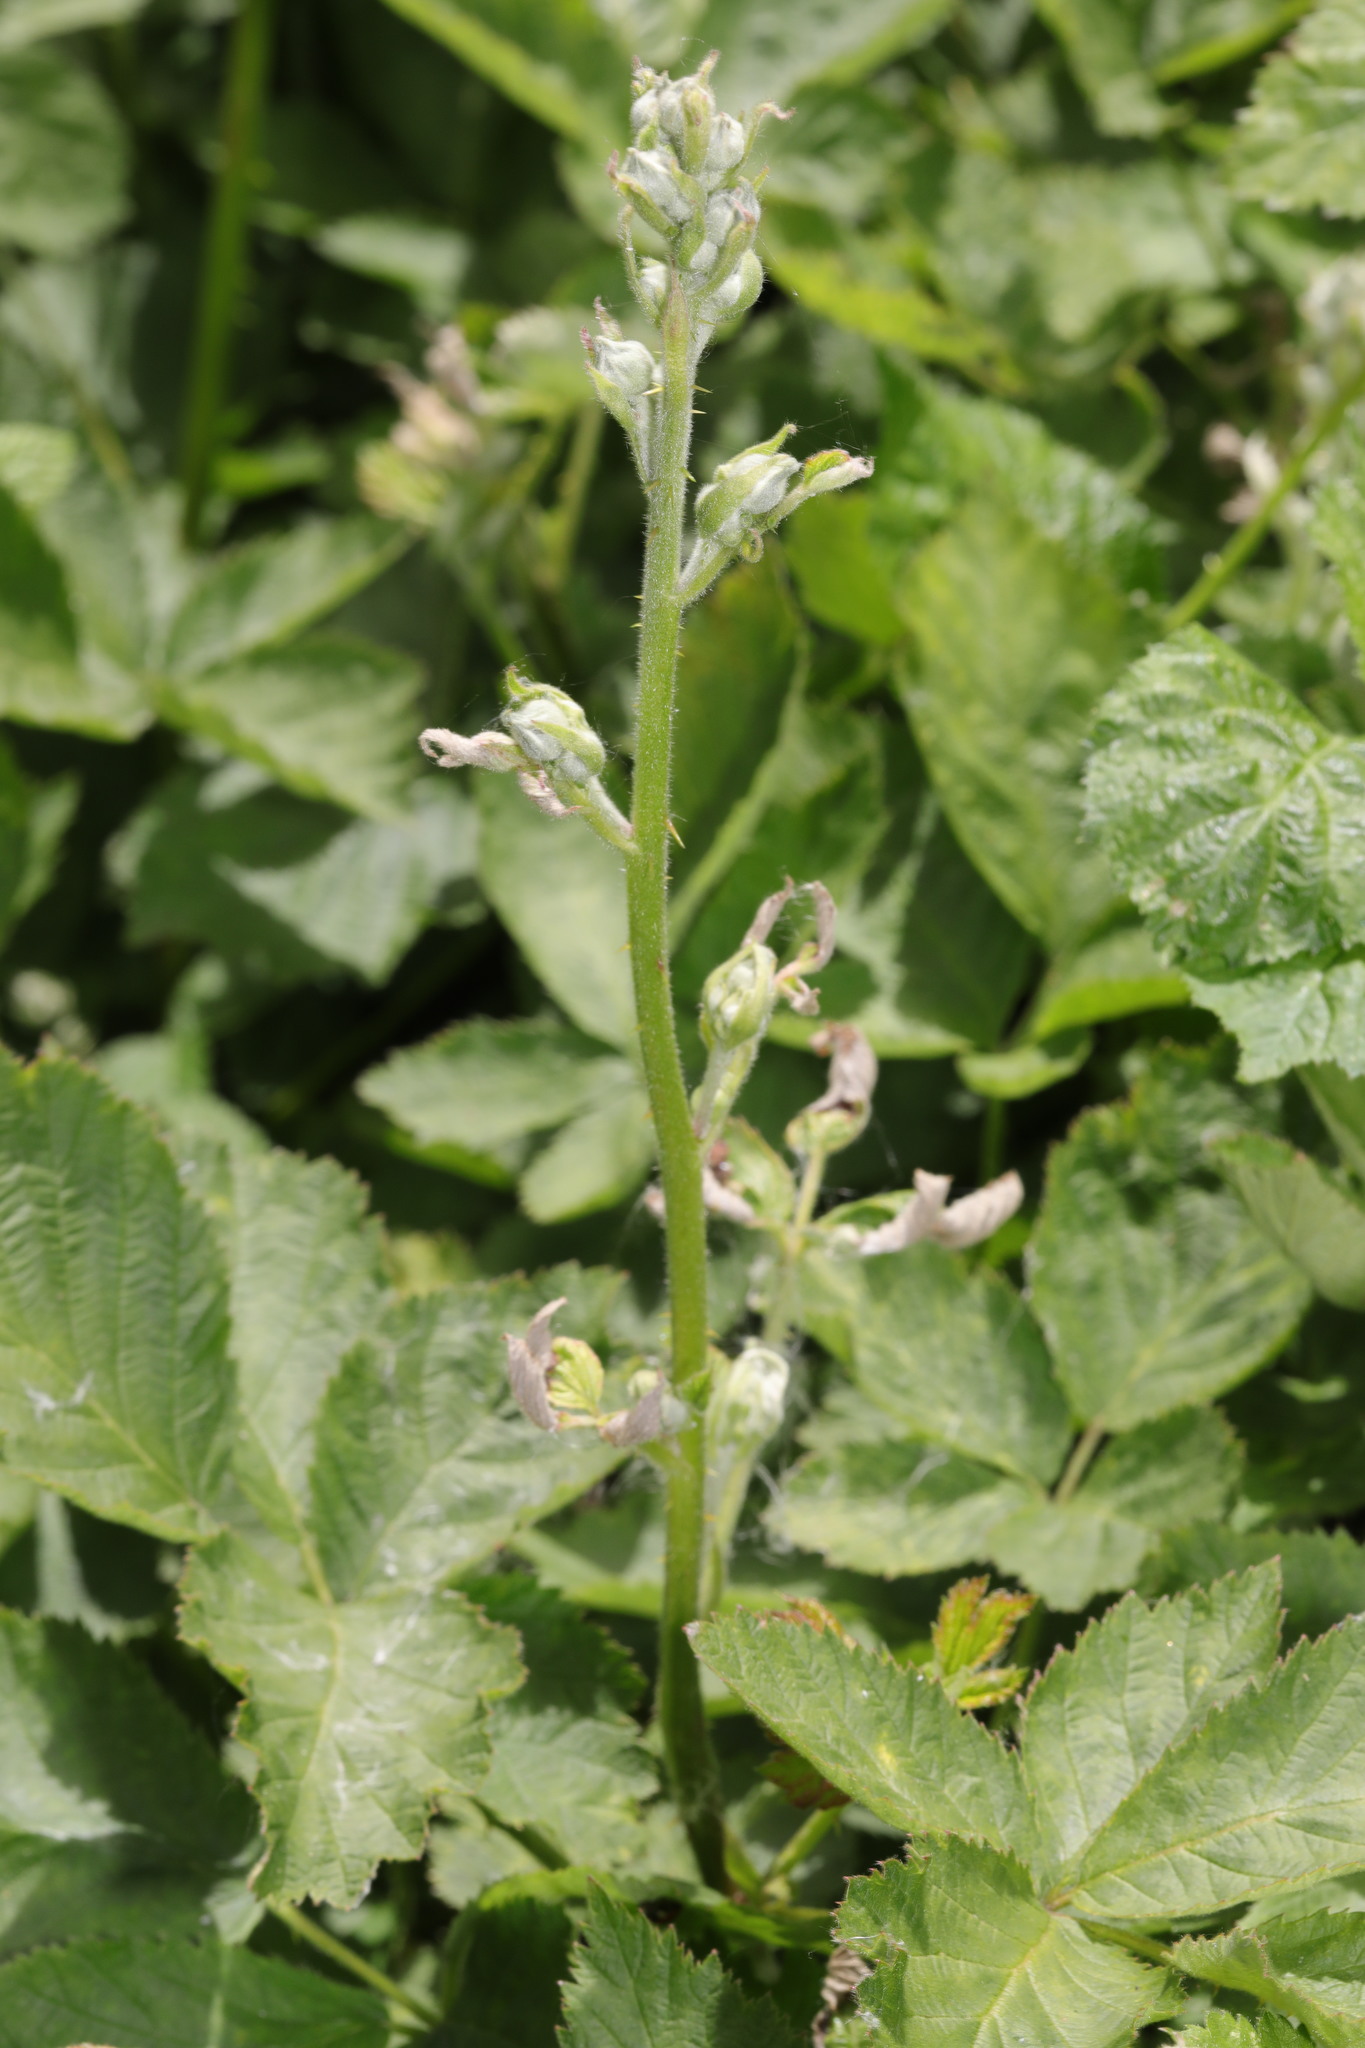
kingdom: Plantae
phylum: Tracheophyta
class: Magnoliopsida
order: Rosales
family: Rosaceae
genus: Rubus
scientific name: Rubus armeniacus
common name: Himalayan blackberry
